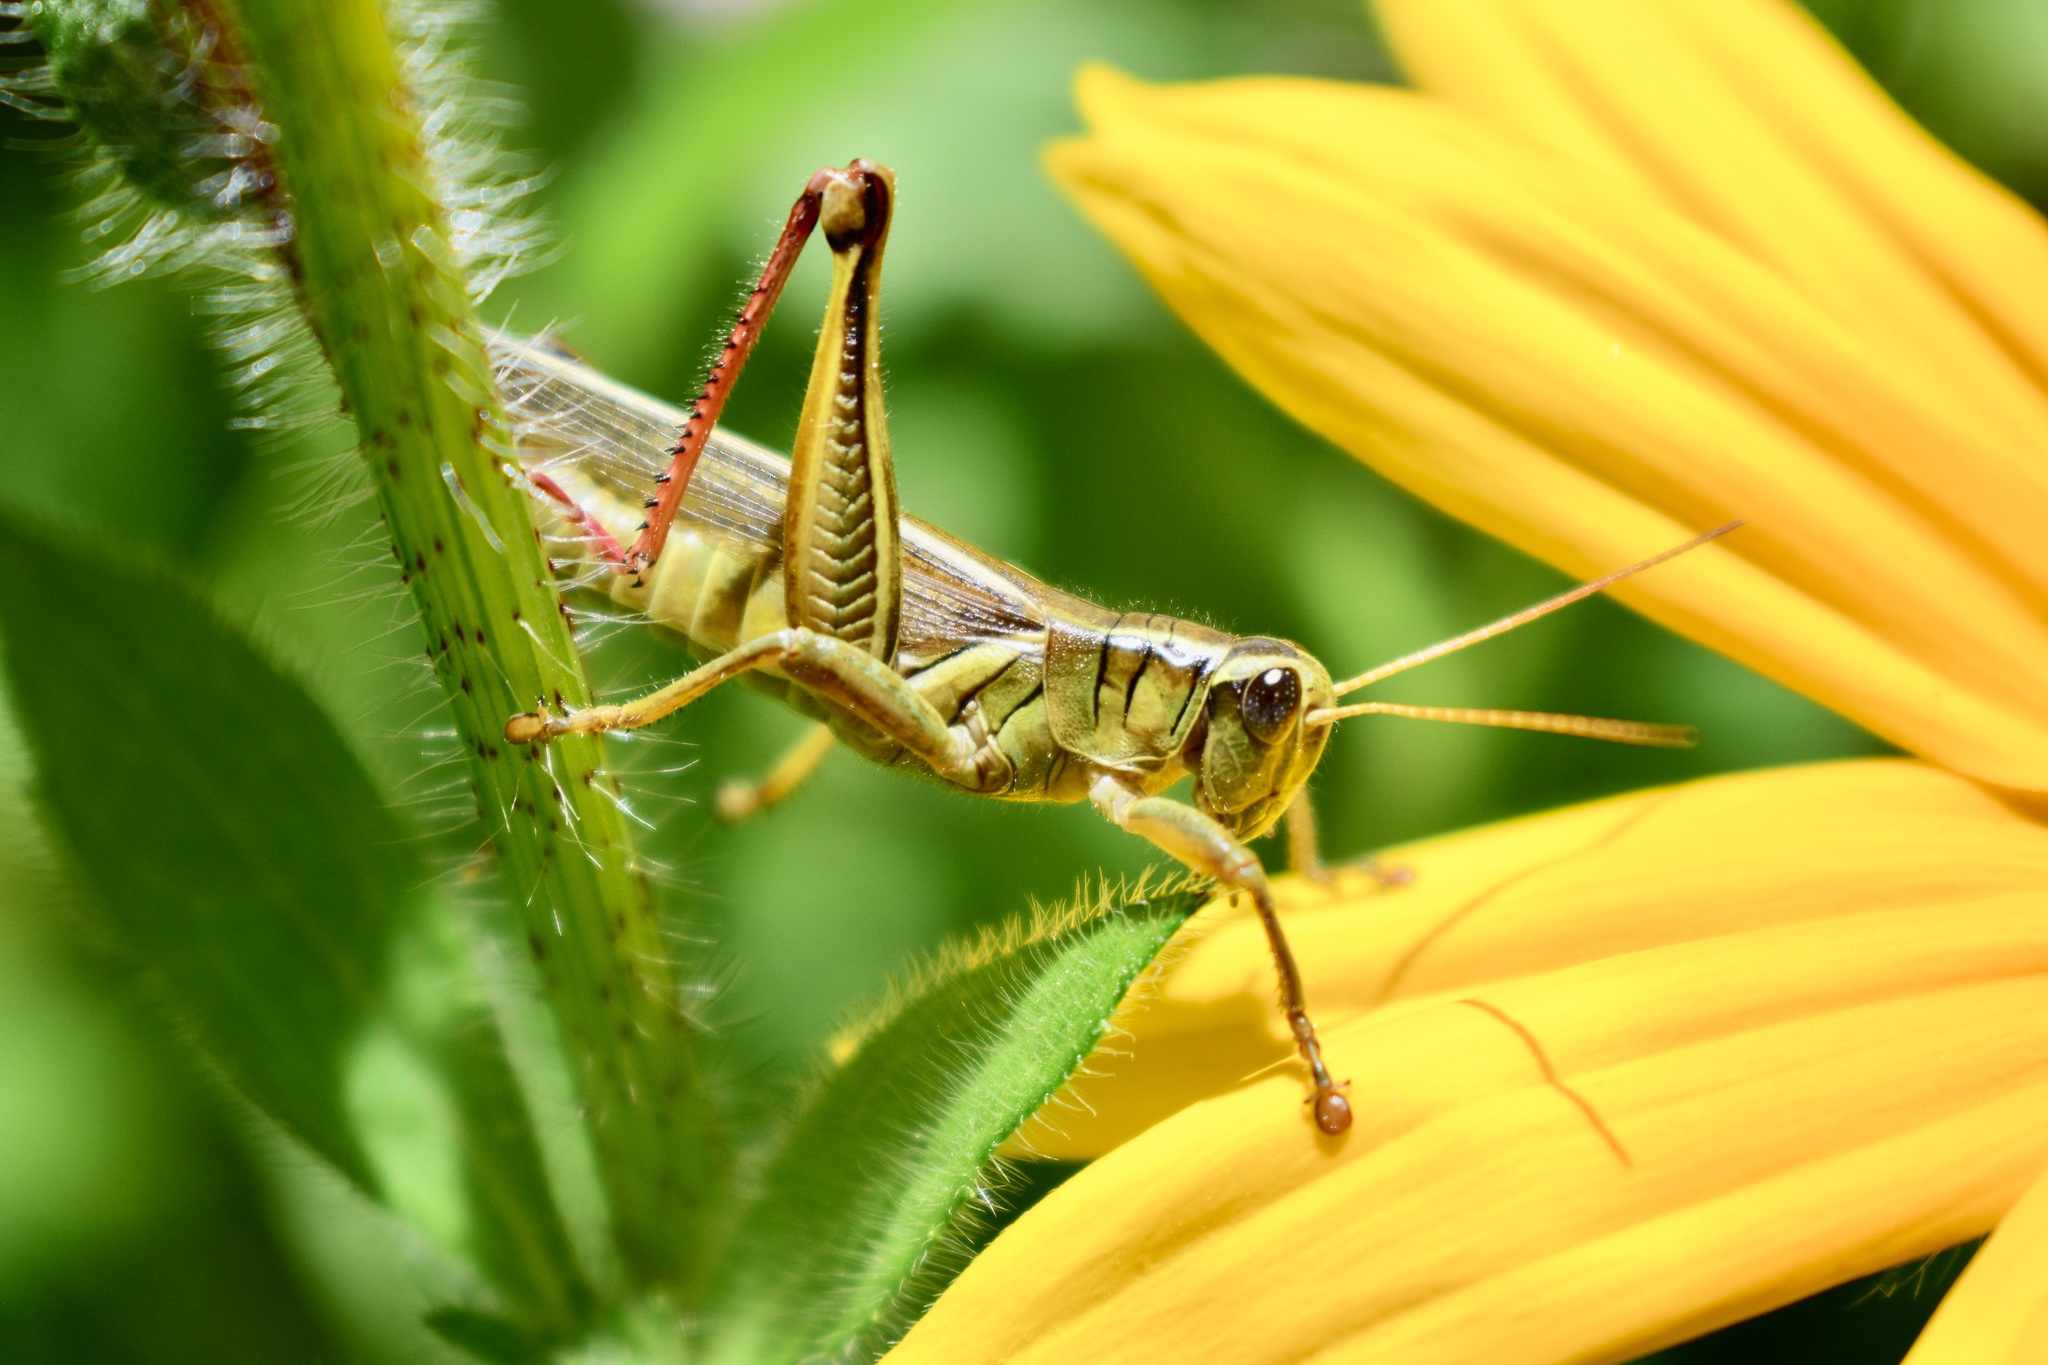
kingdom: Animalia
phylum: Arthropoda
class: Insecta
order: Orthoptera
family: Acrididae
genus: Melanoplus
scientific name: Melanoplus bivittatus
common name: Two-striped grasshopper
